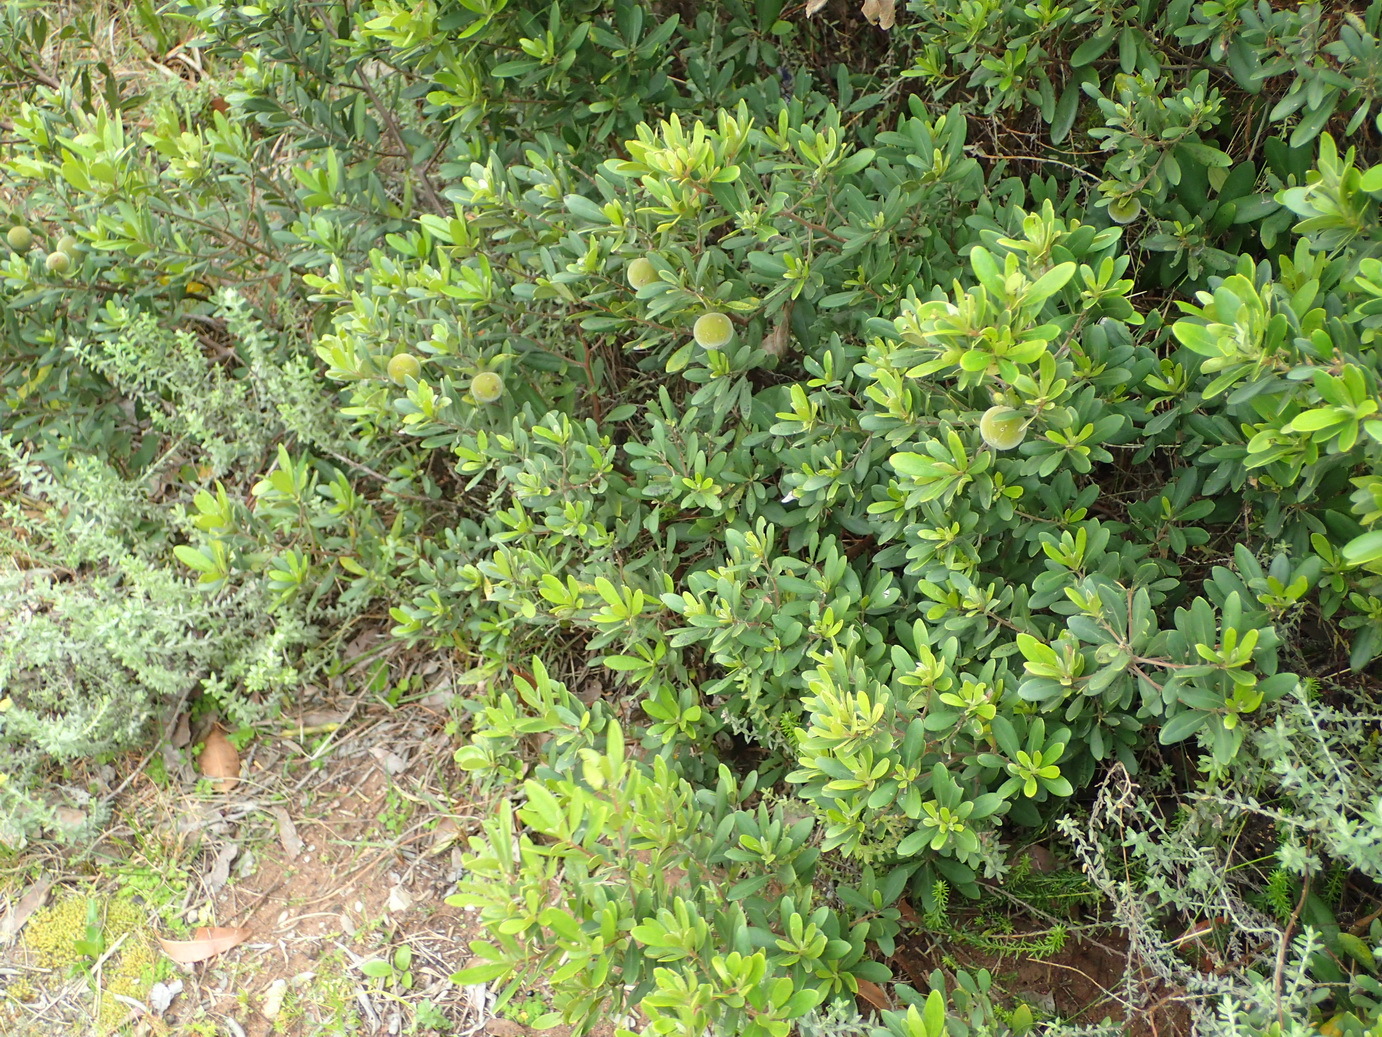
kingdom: Plantae
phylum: Tracheophyta
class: Magnoliopsida
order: Ericales
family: Ebenaceae
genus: Diospyros
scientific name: Diospyros dichrophylla
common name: Common star-apple
